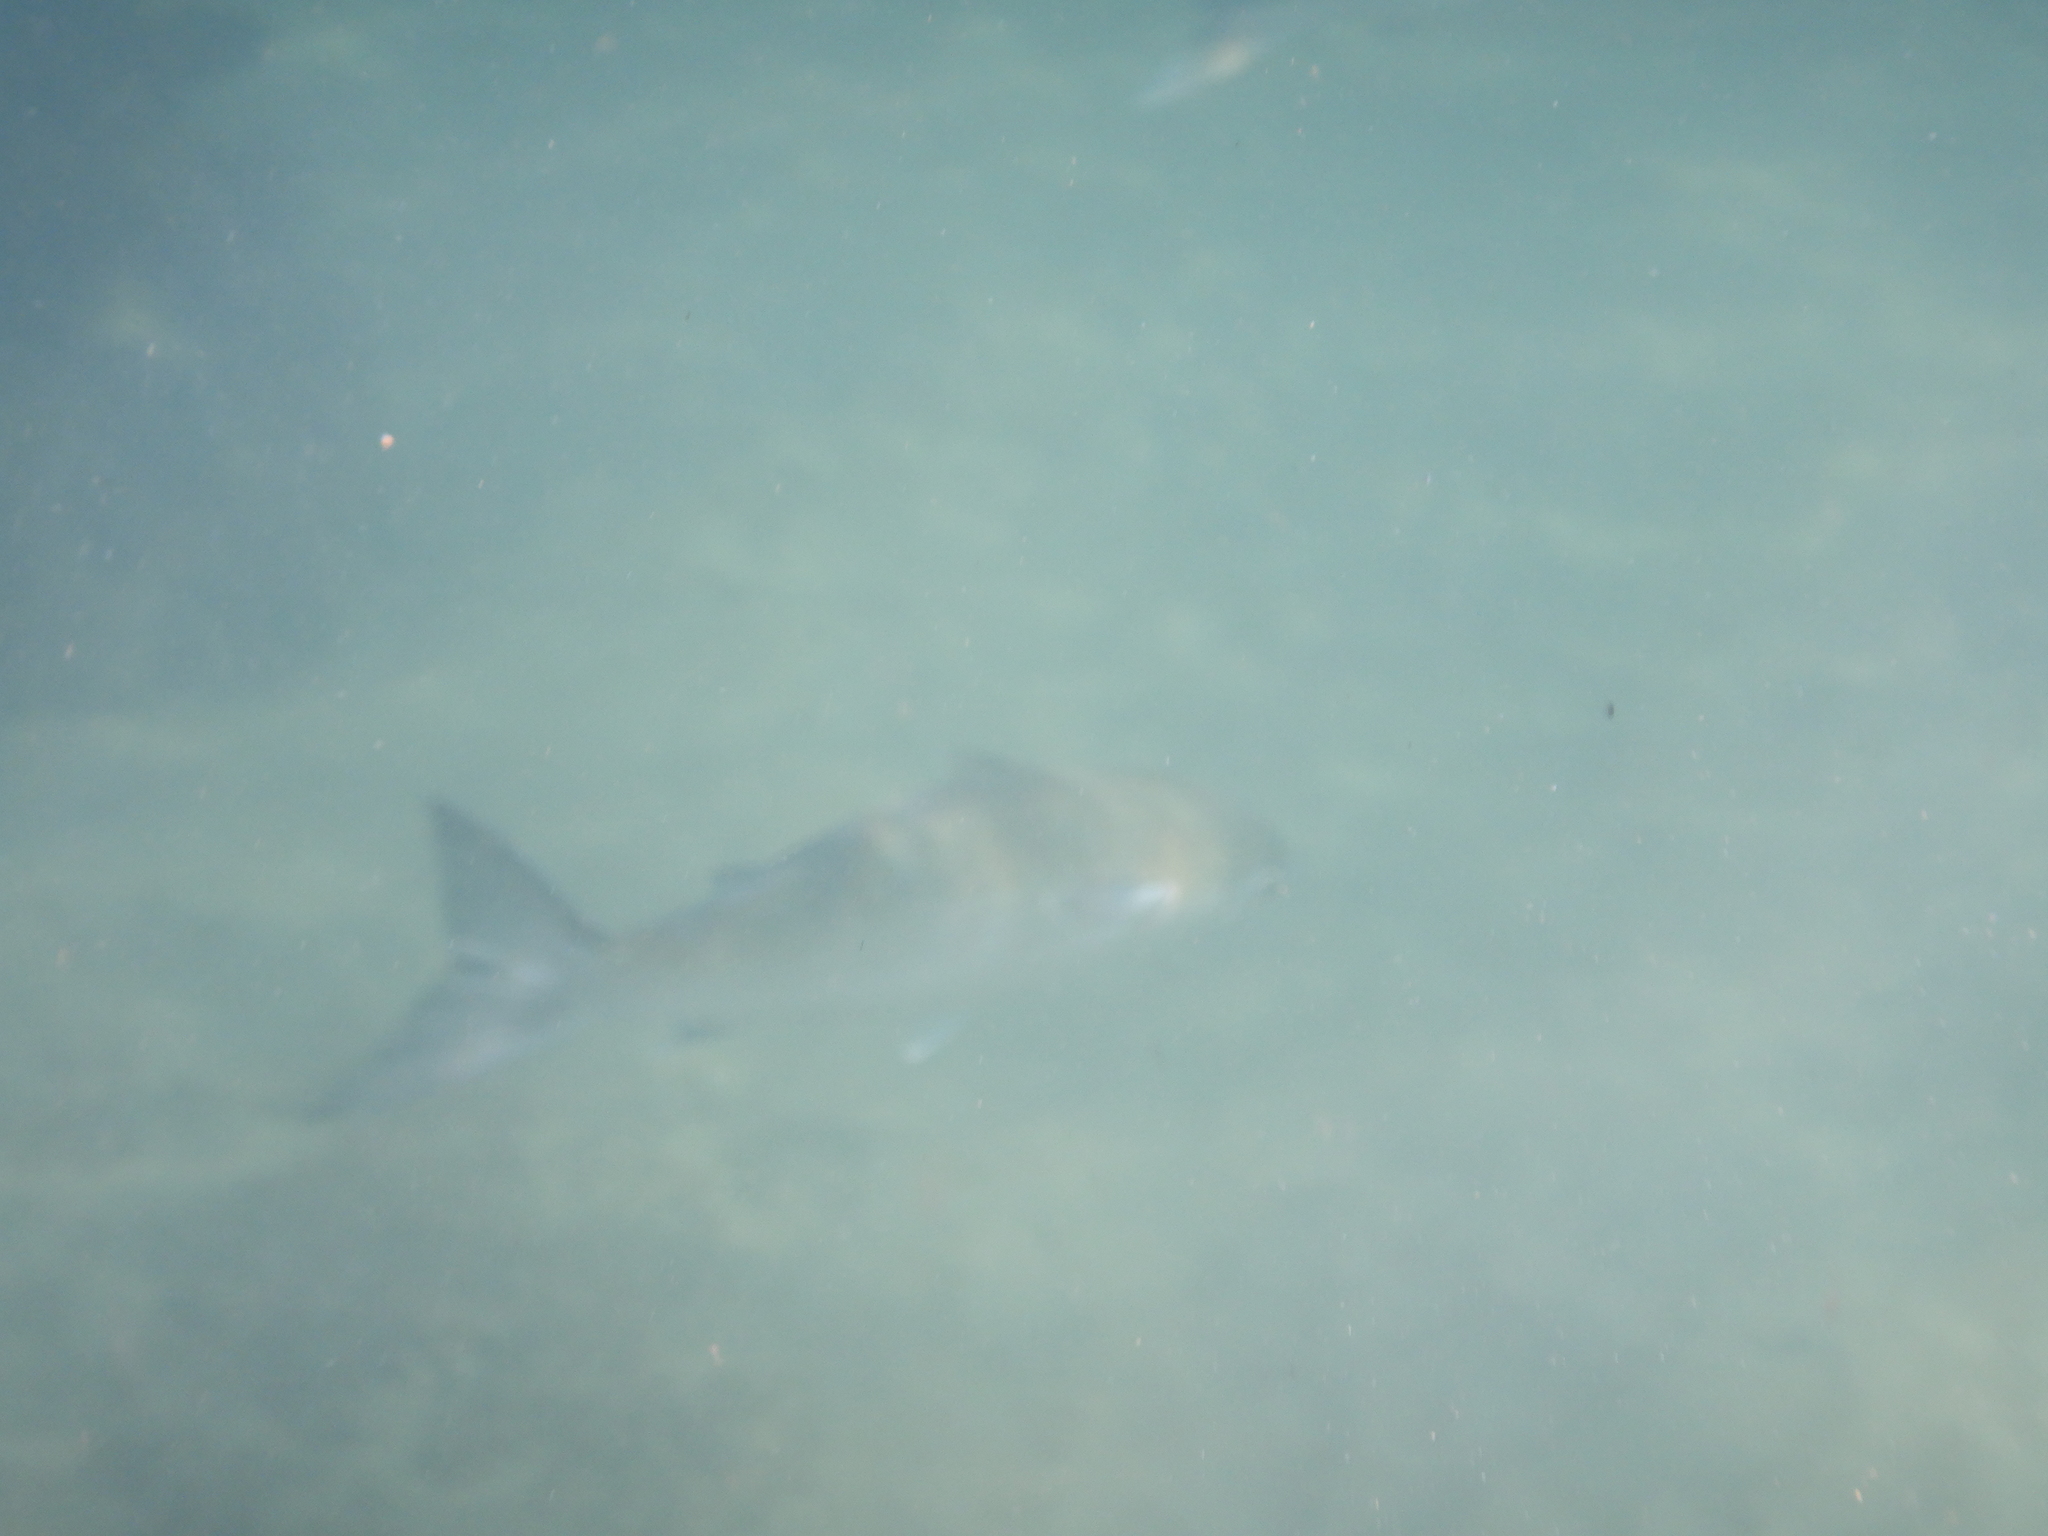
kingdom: Animalia
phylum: Chordata
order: Mugiliformes
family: Mugilidae
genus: Mugil
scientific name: Mugil cephalus
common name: Grey mullet
